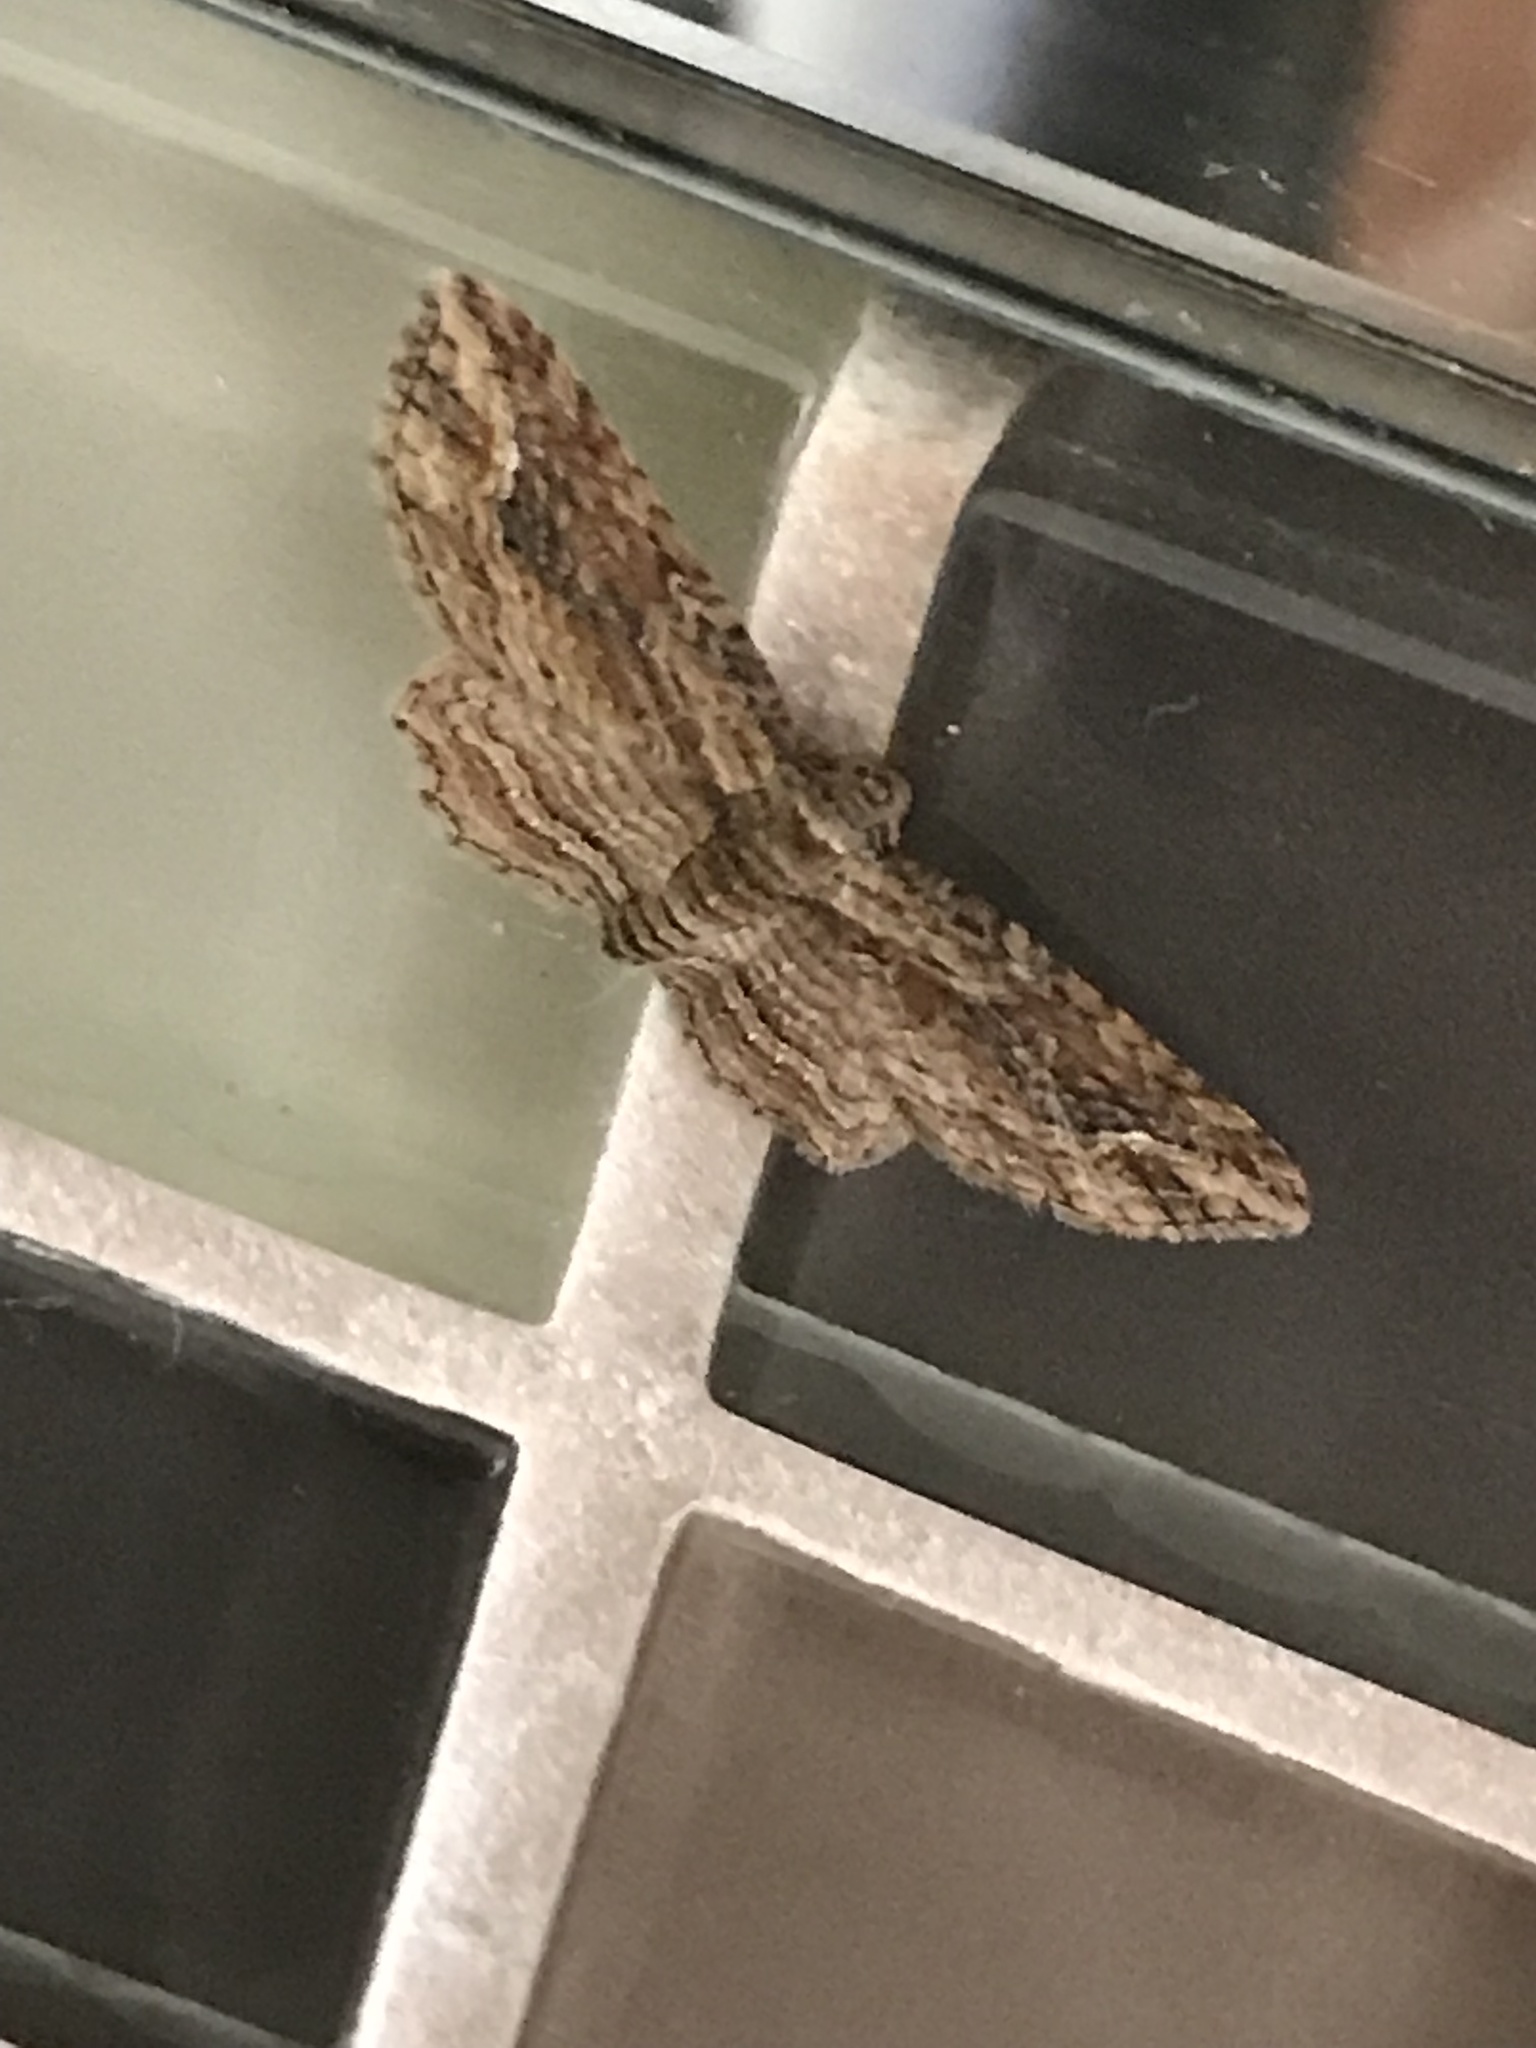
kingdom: Animalia
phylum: Arthropoda
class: Insecta
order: Lepidoptera
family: Geometridae
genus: Chloroclystis
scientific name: Chloroclystis filata
